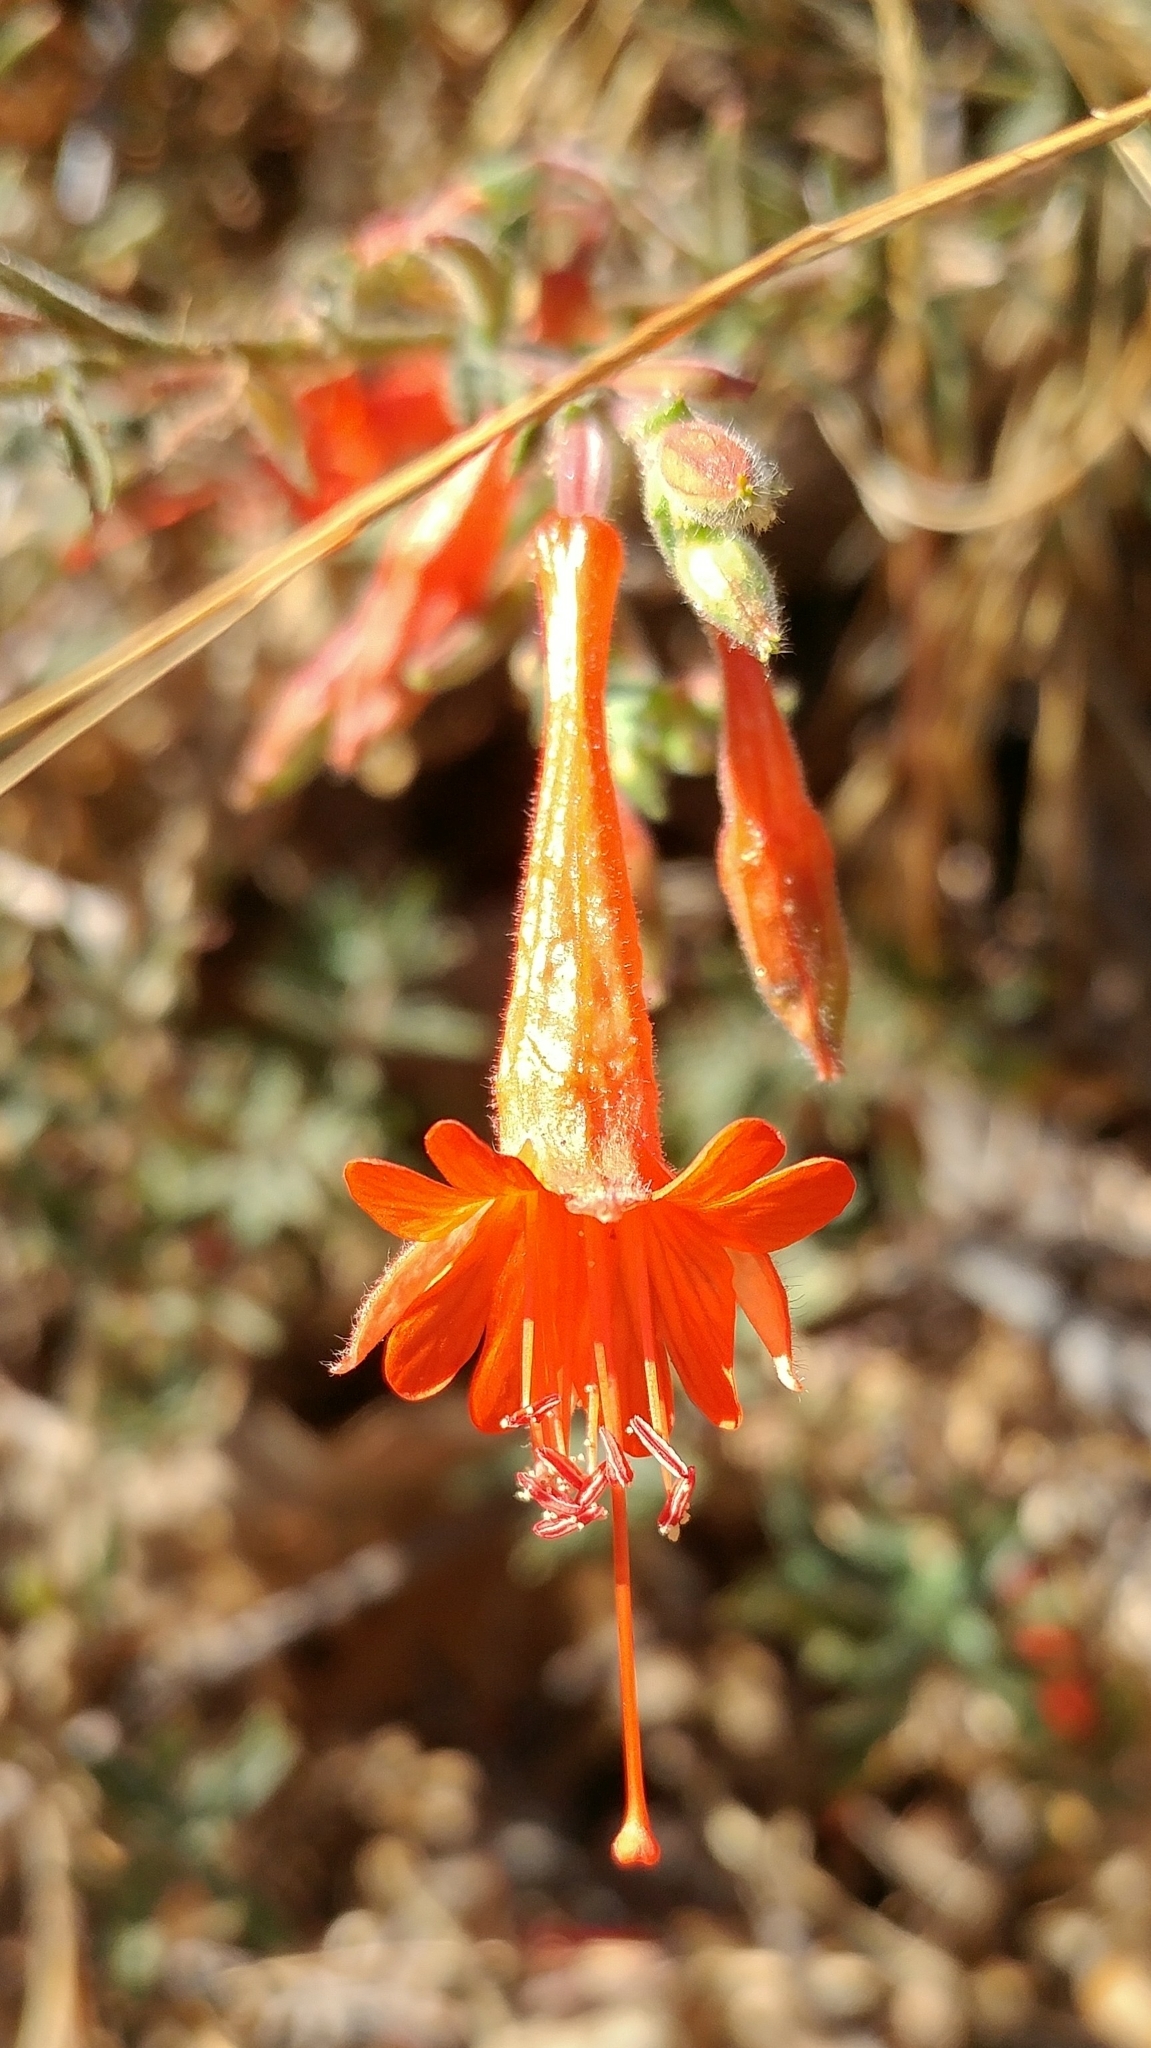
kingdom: Plantae
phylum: Tracheophyta
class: Magnoliopsida
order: Myrtales
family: Onagraceae
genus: Epilobium
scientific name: Epilobium canum
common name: California-fuchsia
